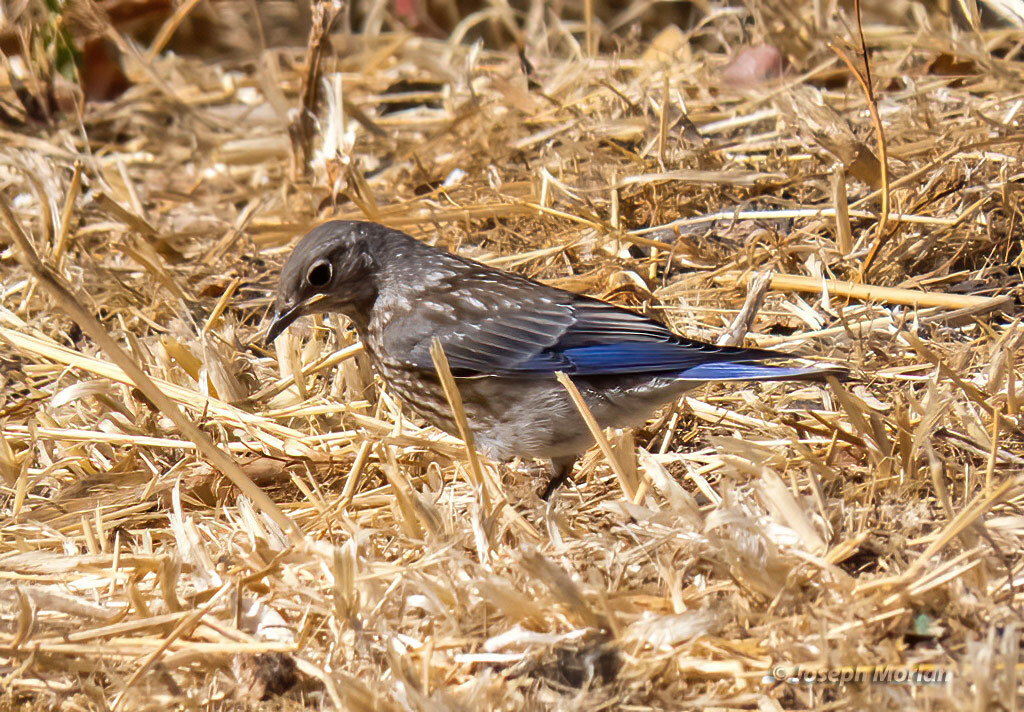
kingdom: Animalia
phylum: Chordata
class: Aves
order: Passeriformes
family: Turdidae
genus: Sialia
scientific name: Sialia mexicana
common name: Western bluebird
